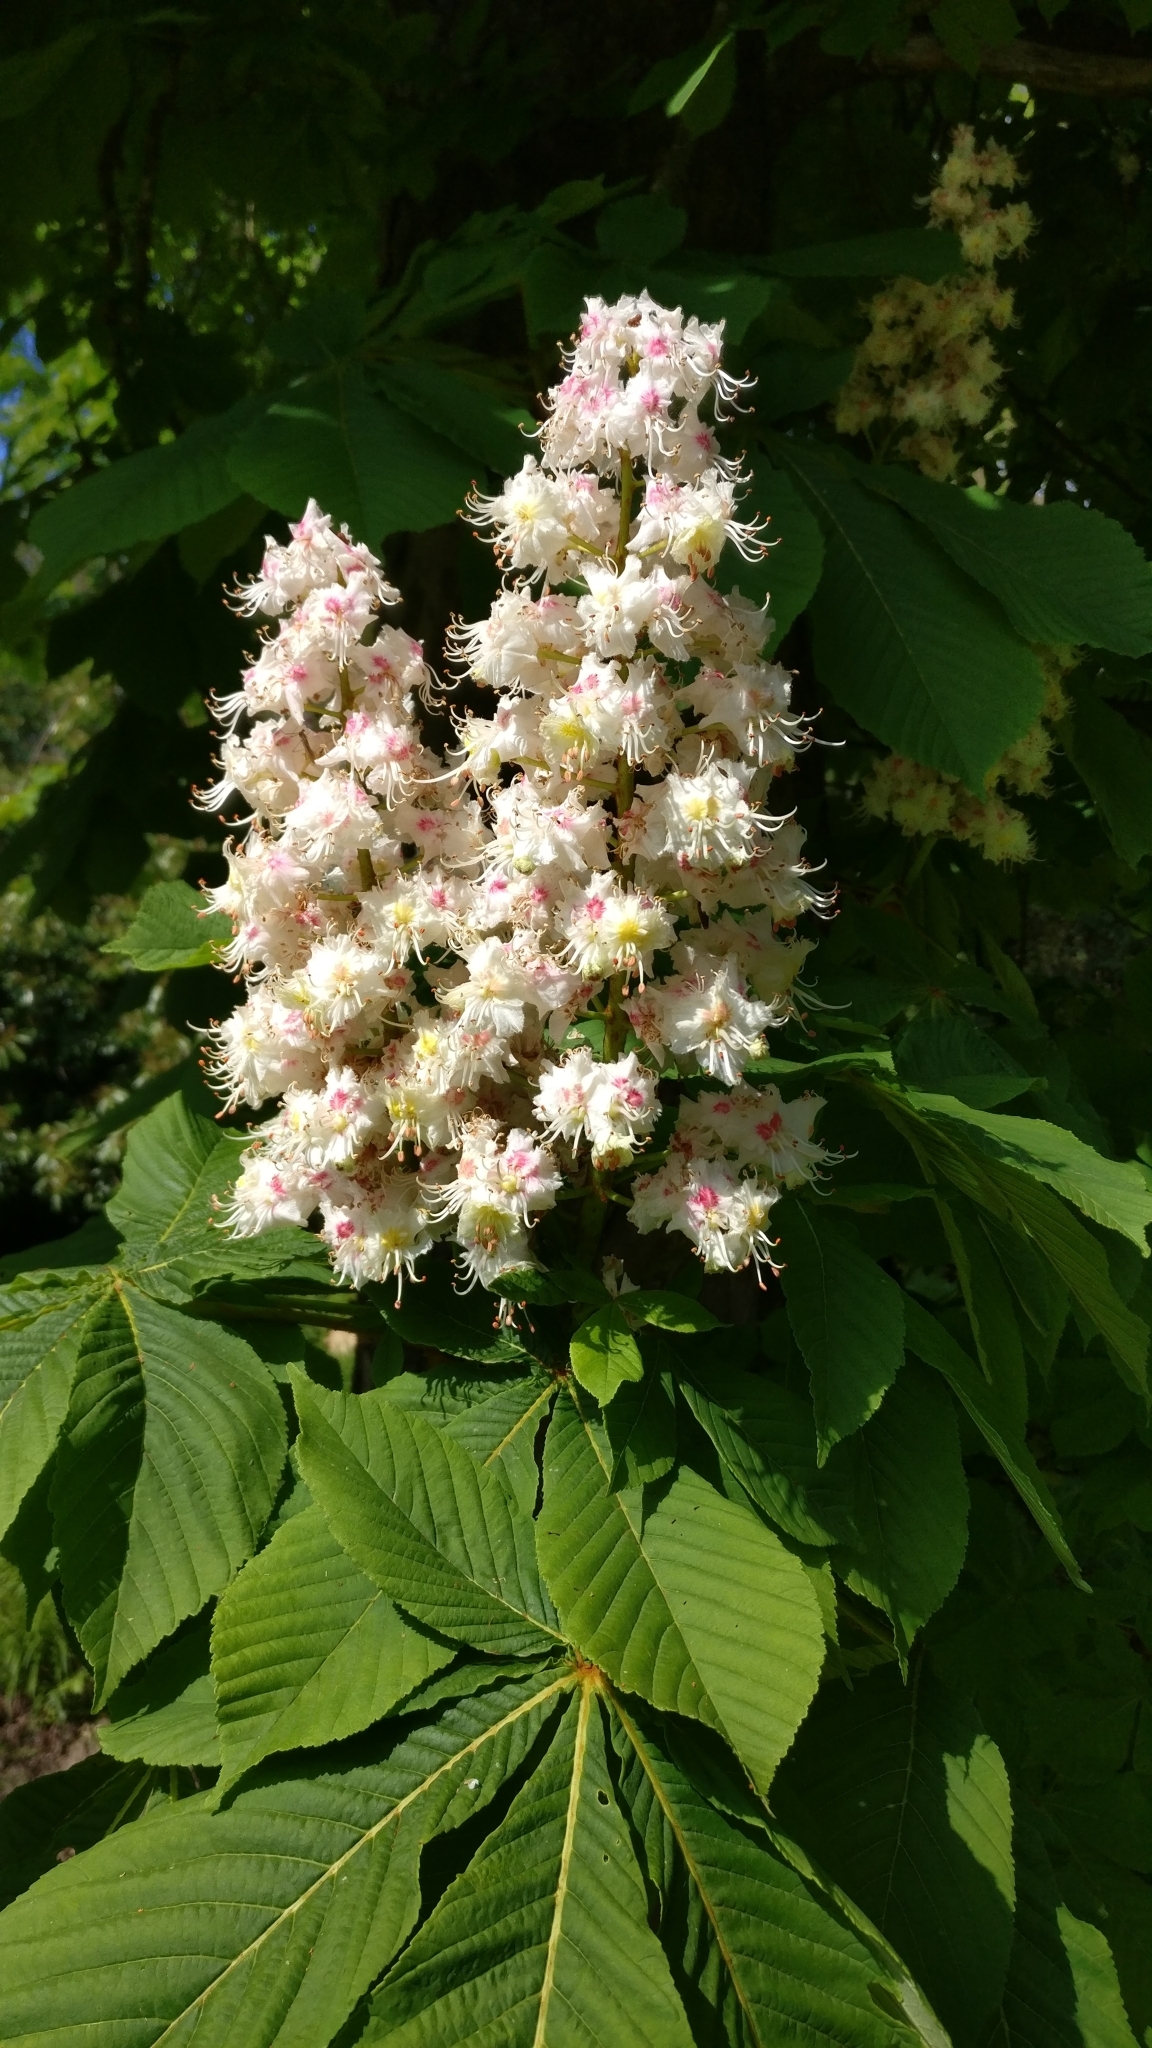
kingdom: Plantae
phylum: Tracheophyta
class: Magnoliopsida
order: Sapindales
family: Sapindaceae
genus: Aesculus
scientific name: Aesculus hippocastanum
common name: Horse-chestnut
